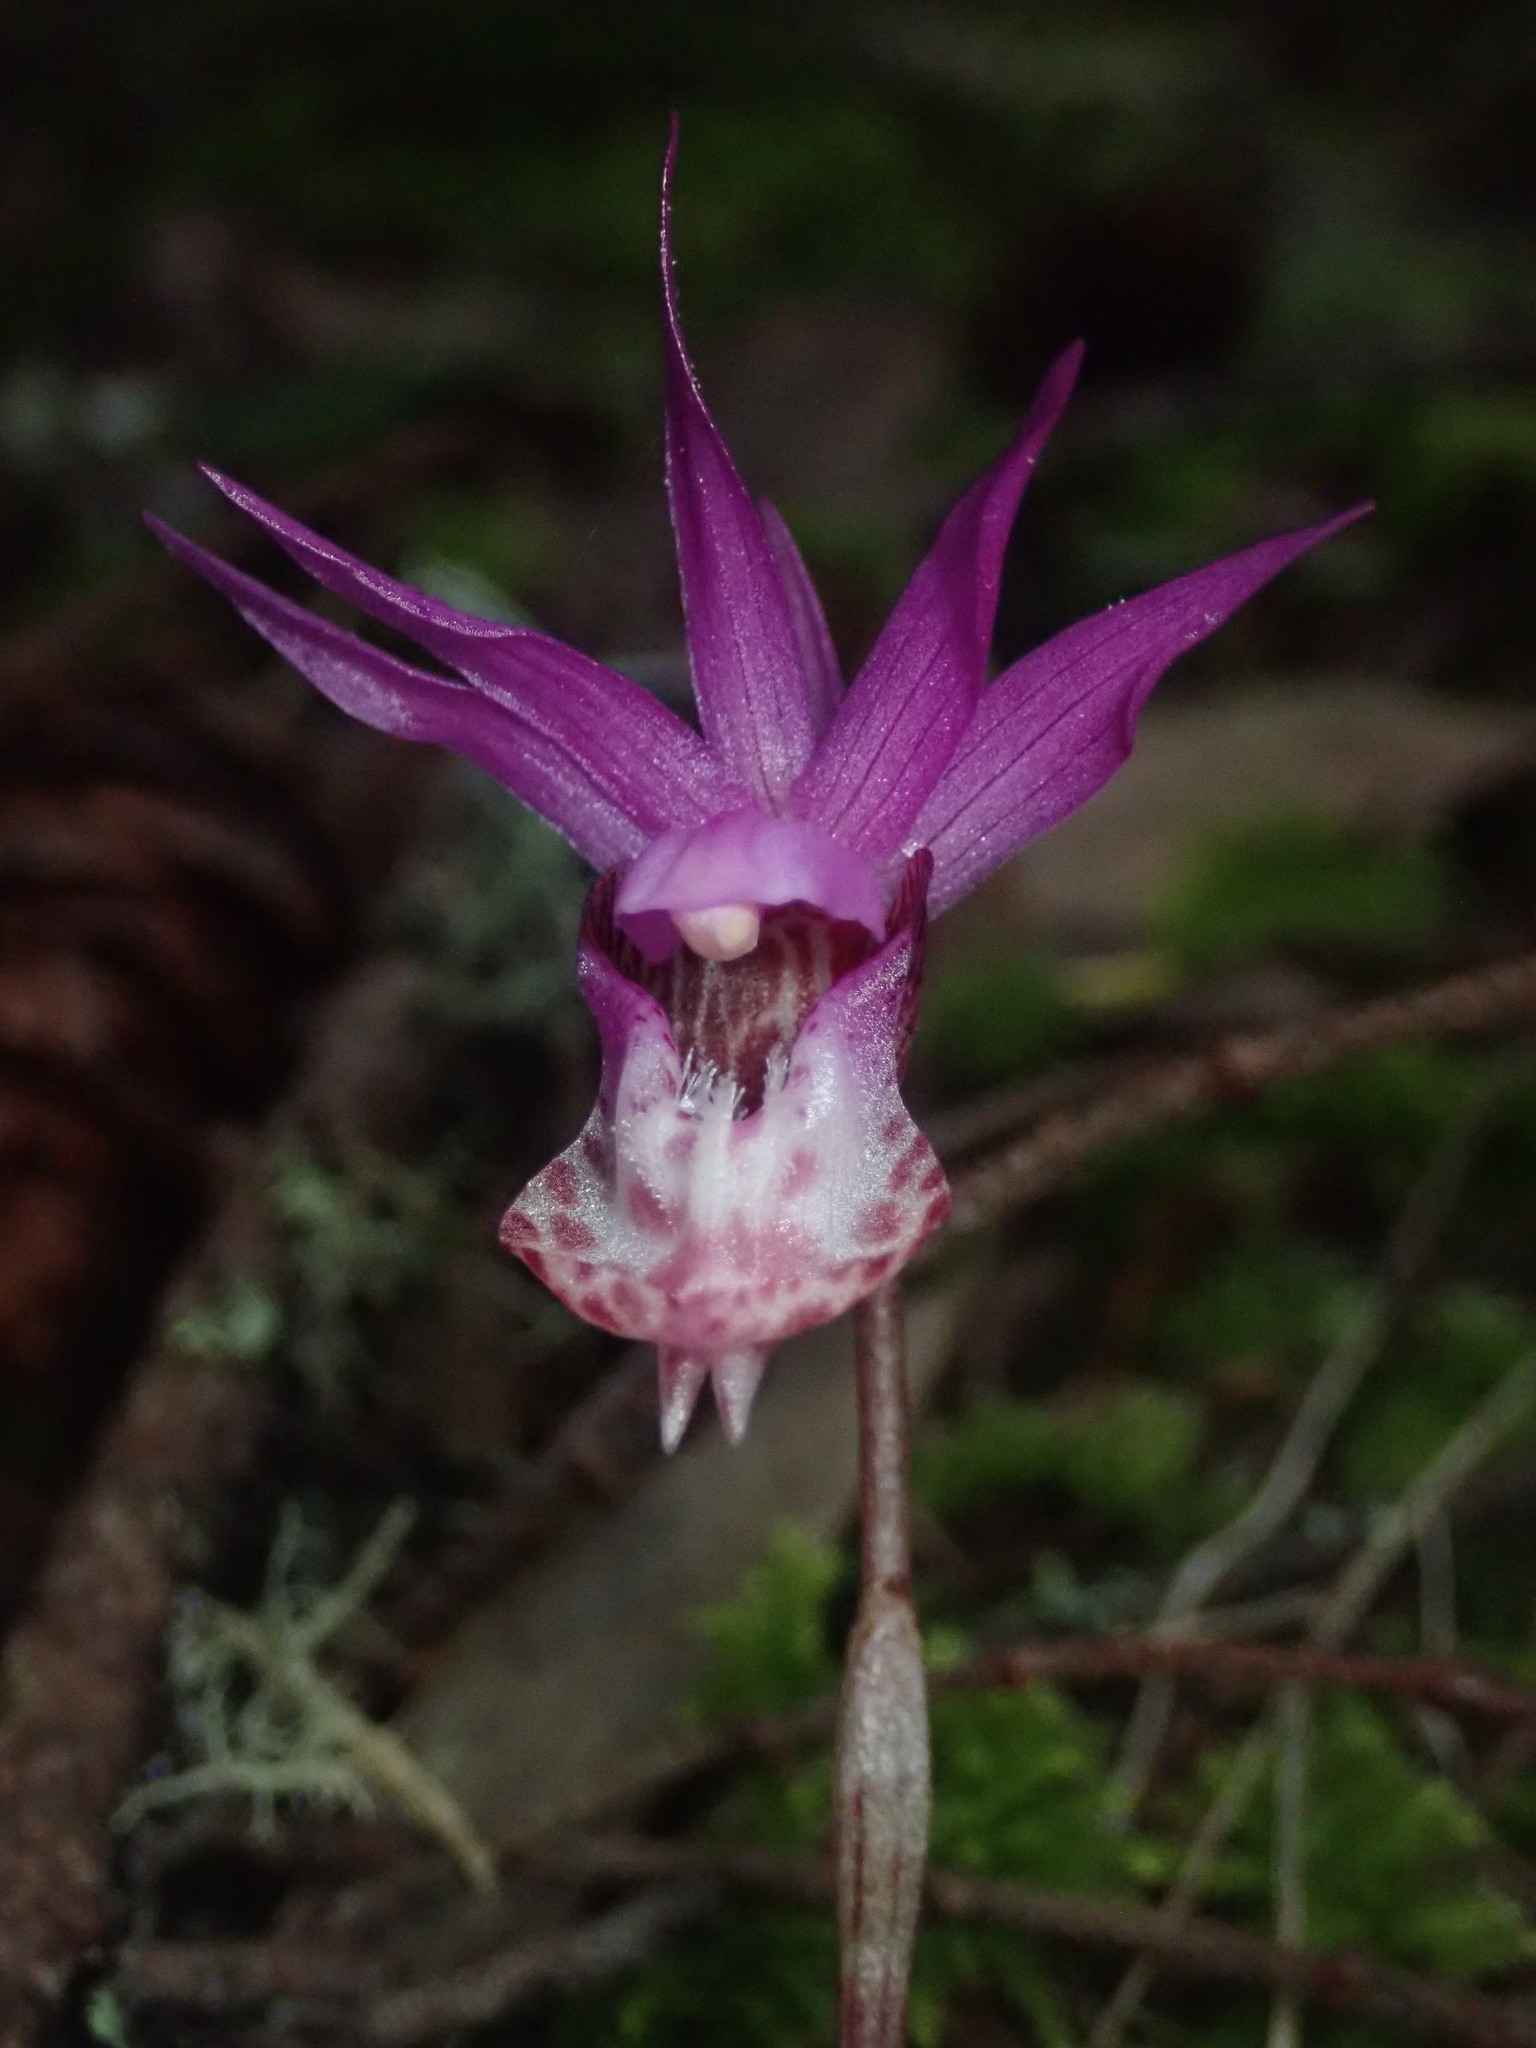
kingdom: Plantae
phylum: Tracheophyta
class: Liliopsida
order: Asparagales
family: Orchidaceae
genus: Calypso
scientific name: Calypso bulbosa
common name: Calypso
